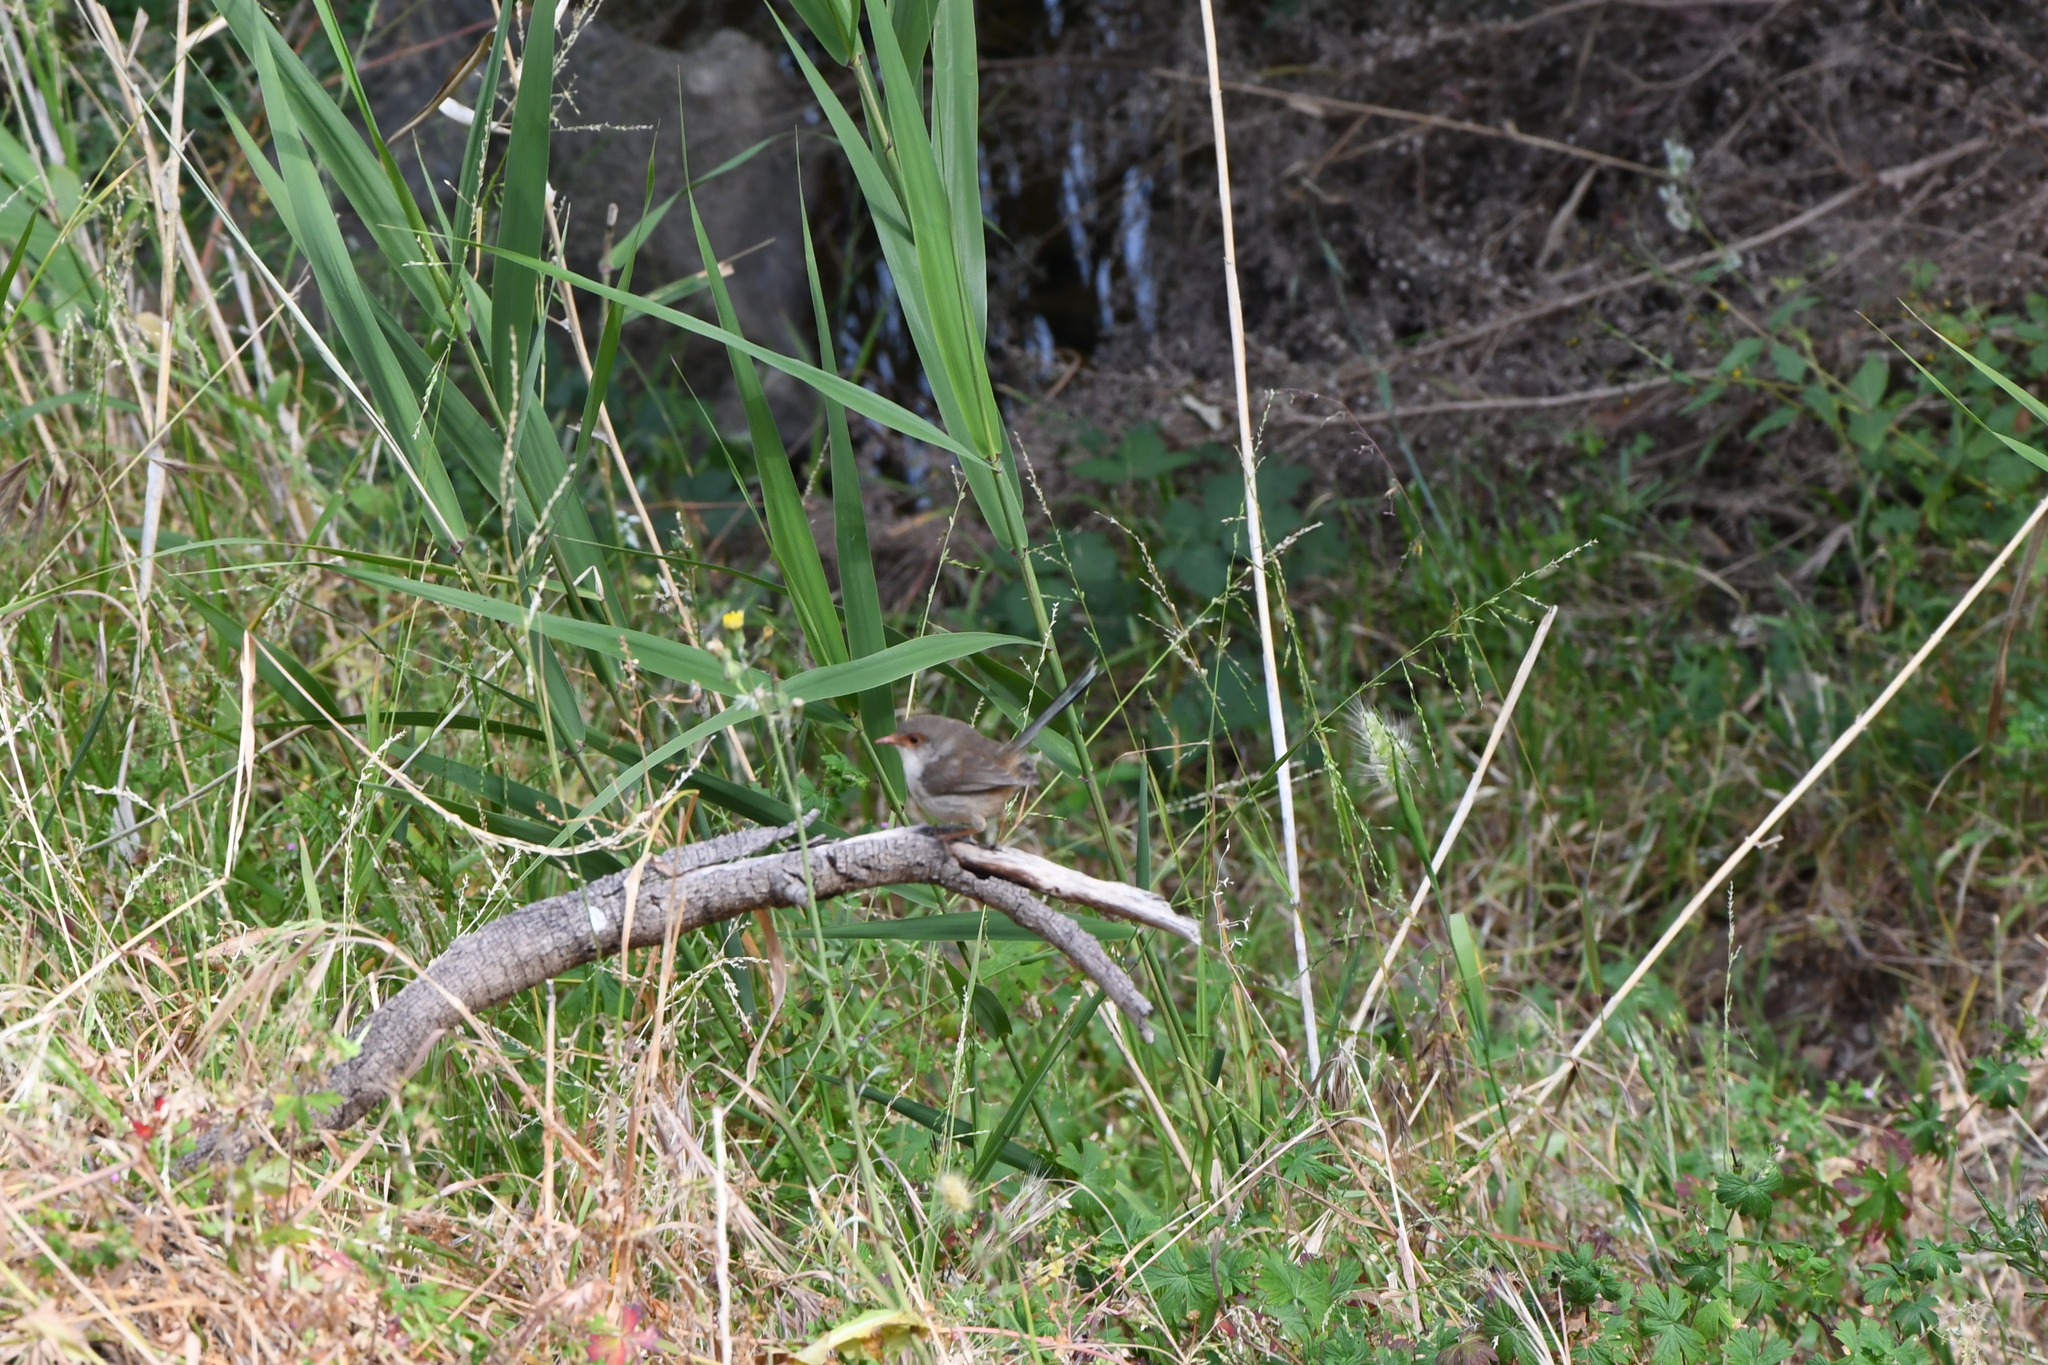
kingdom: Animalia
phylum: Chordata
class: Aves
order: Passeriformes
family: Maluridae
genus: Malurus
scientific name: Malurus cyaneus
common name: Superb fairywren
